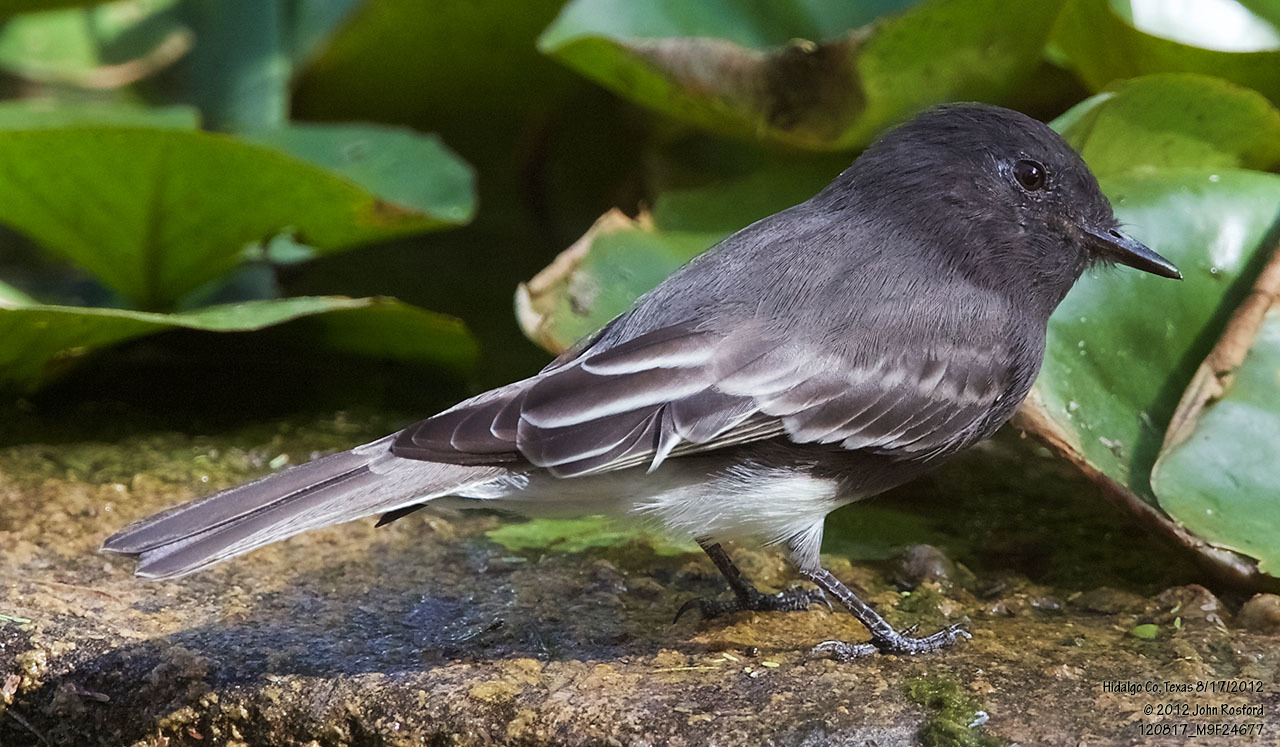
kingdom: Animalia
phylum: Chordata
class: Aves
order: Passeriformes
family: Tyrannidae
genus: Sayornis
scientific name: Sayornis nigricans
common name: Black phoebe
